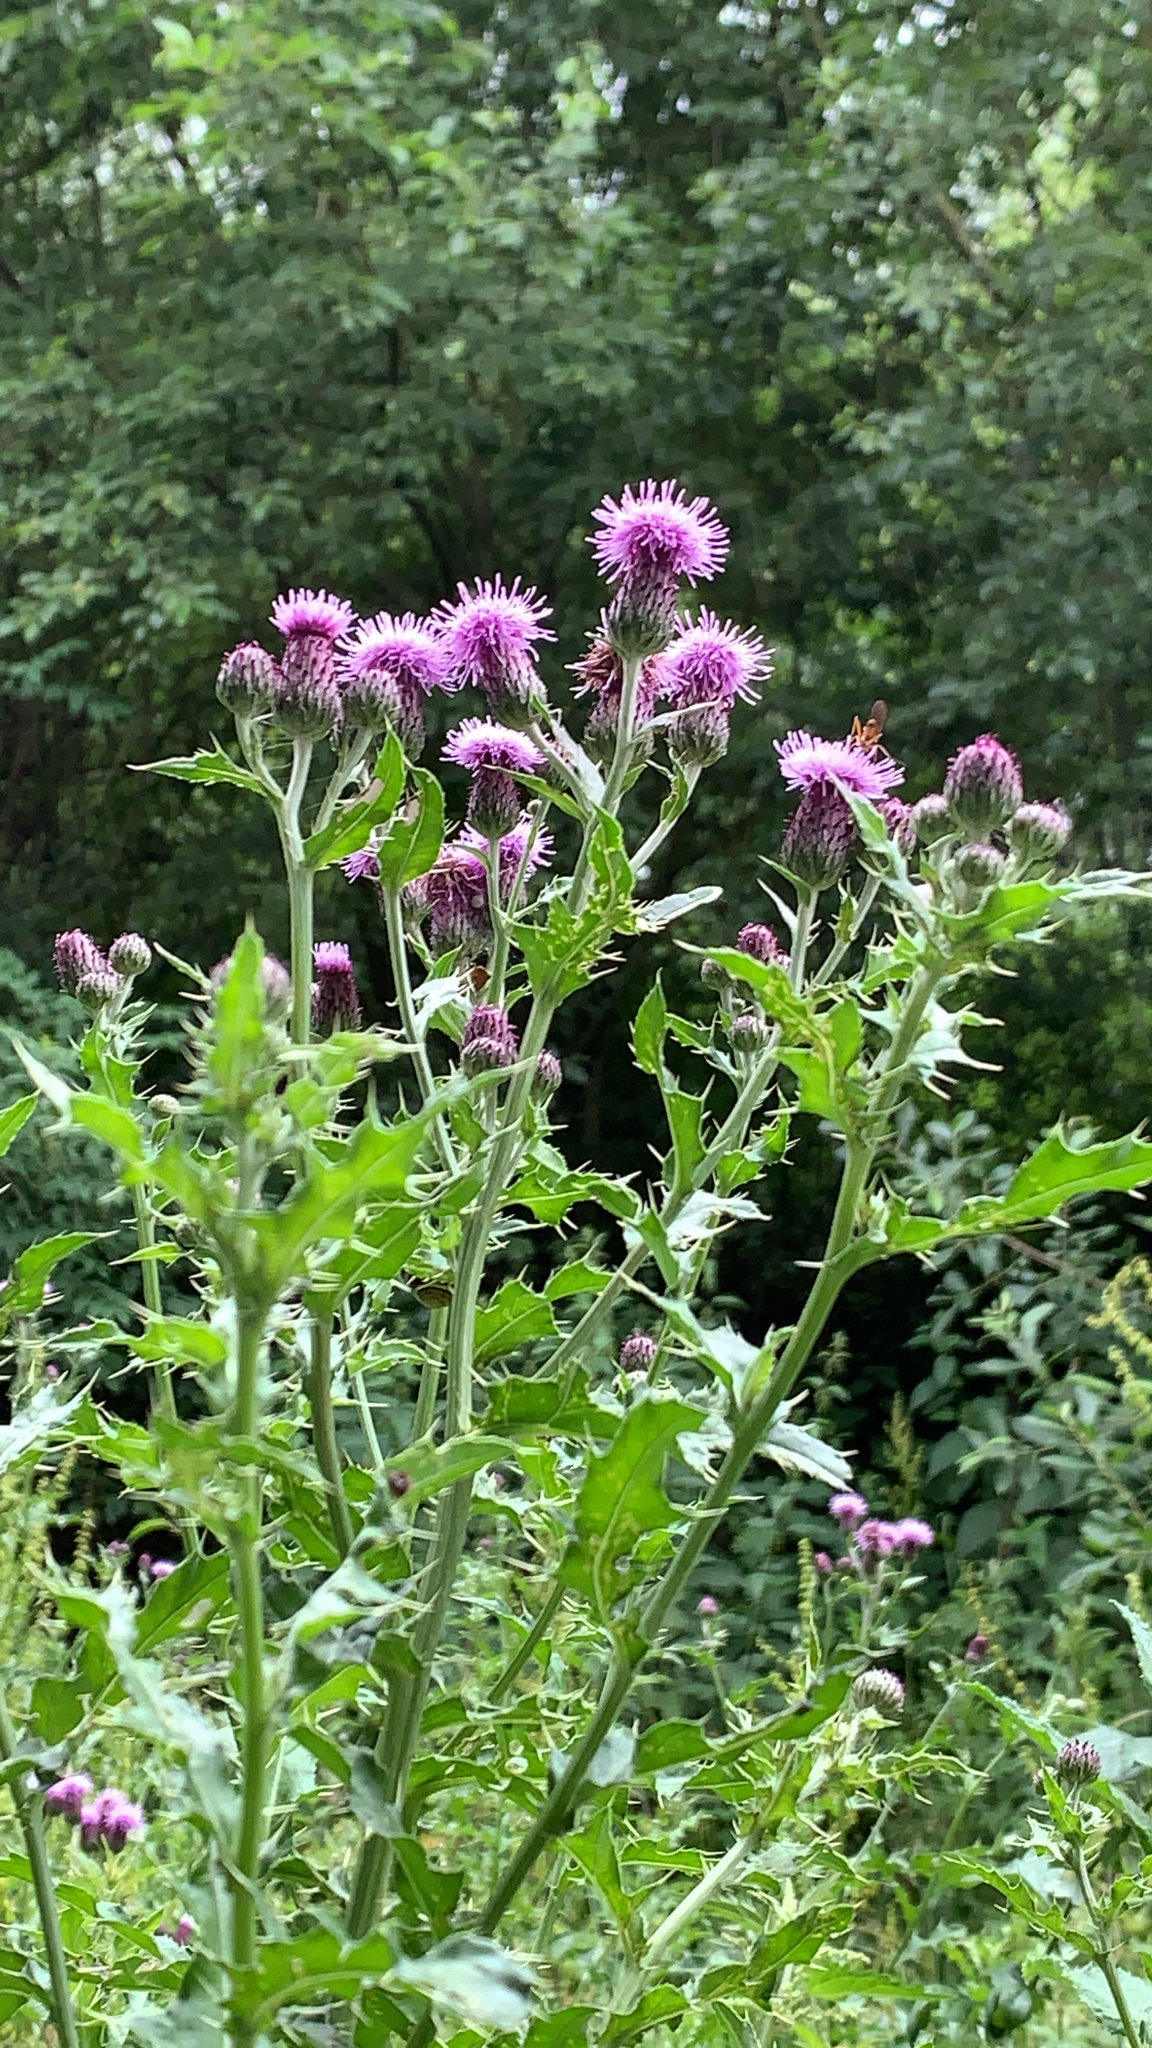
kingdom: Plantae
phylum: Tracheophyta
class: Magnoliopsida
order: Asterales
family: Asteraceae
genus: Cirsium
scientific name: Cirsium arvense
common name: Creeping thistle
